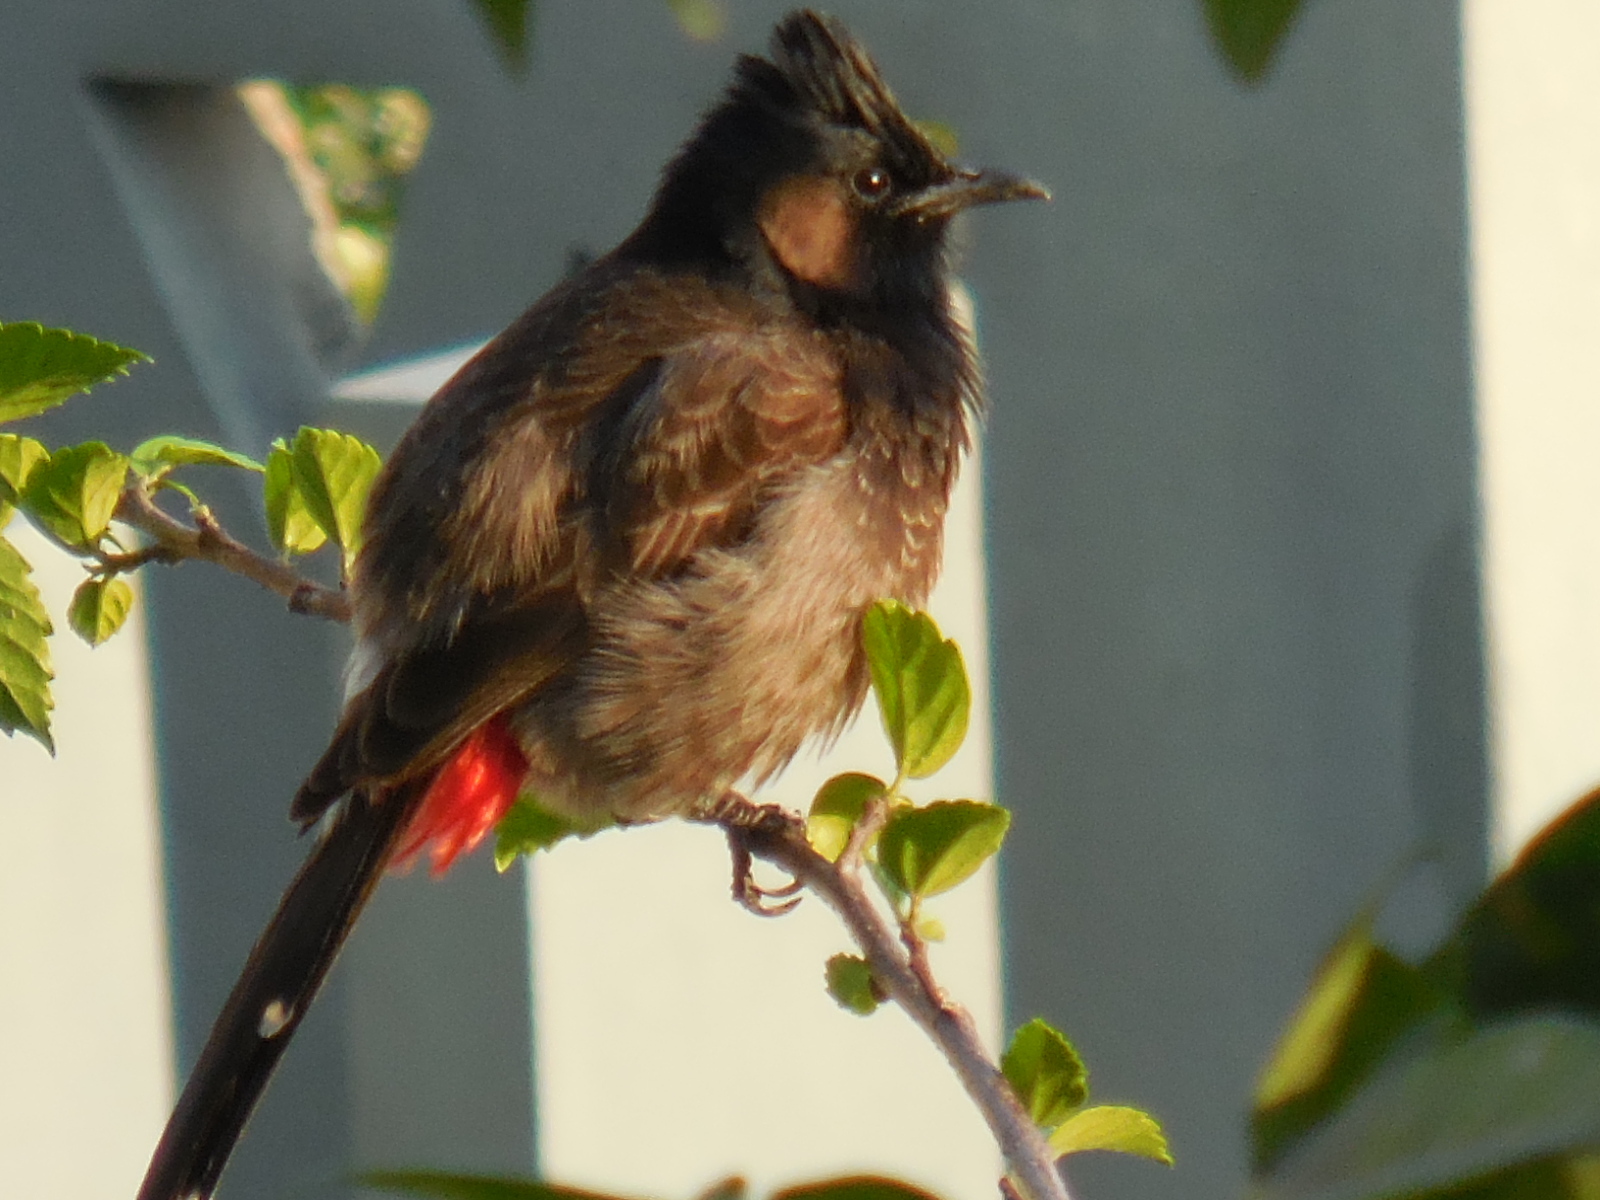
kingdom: Animalia
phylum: Chordata
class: Aves
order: Passeriformes
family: Pycnonotidae
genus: Pycnonotus
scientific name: Pycnonotus cafer
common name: Red-vented bulbul
